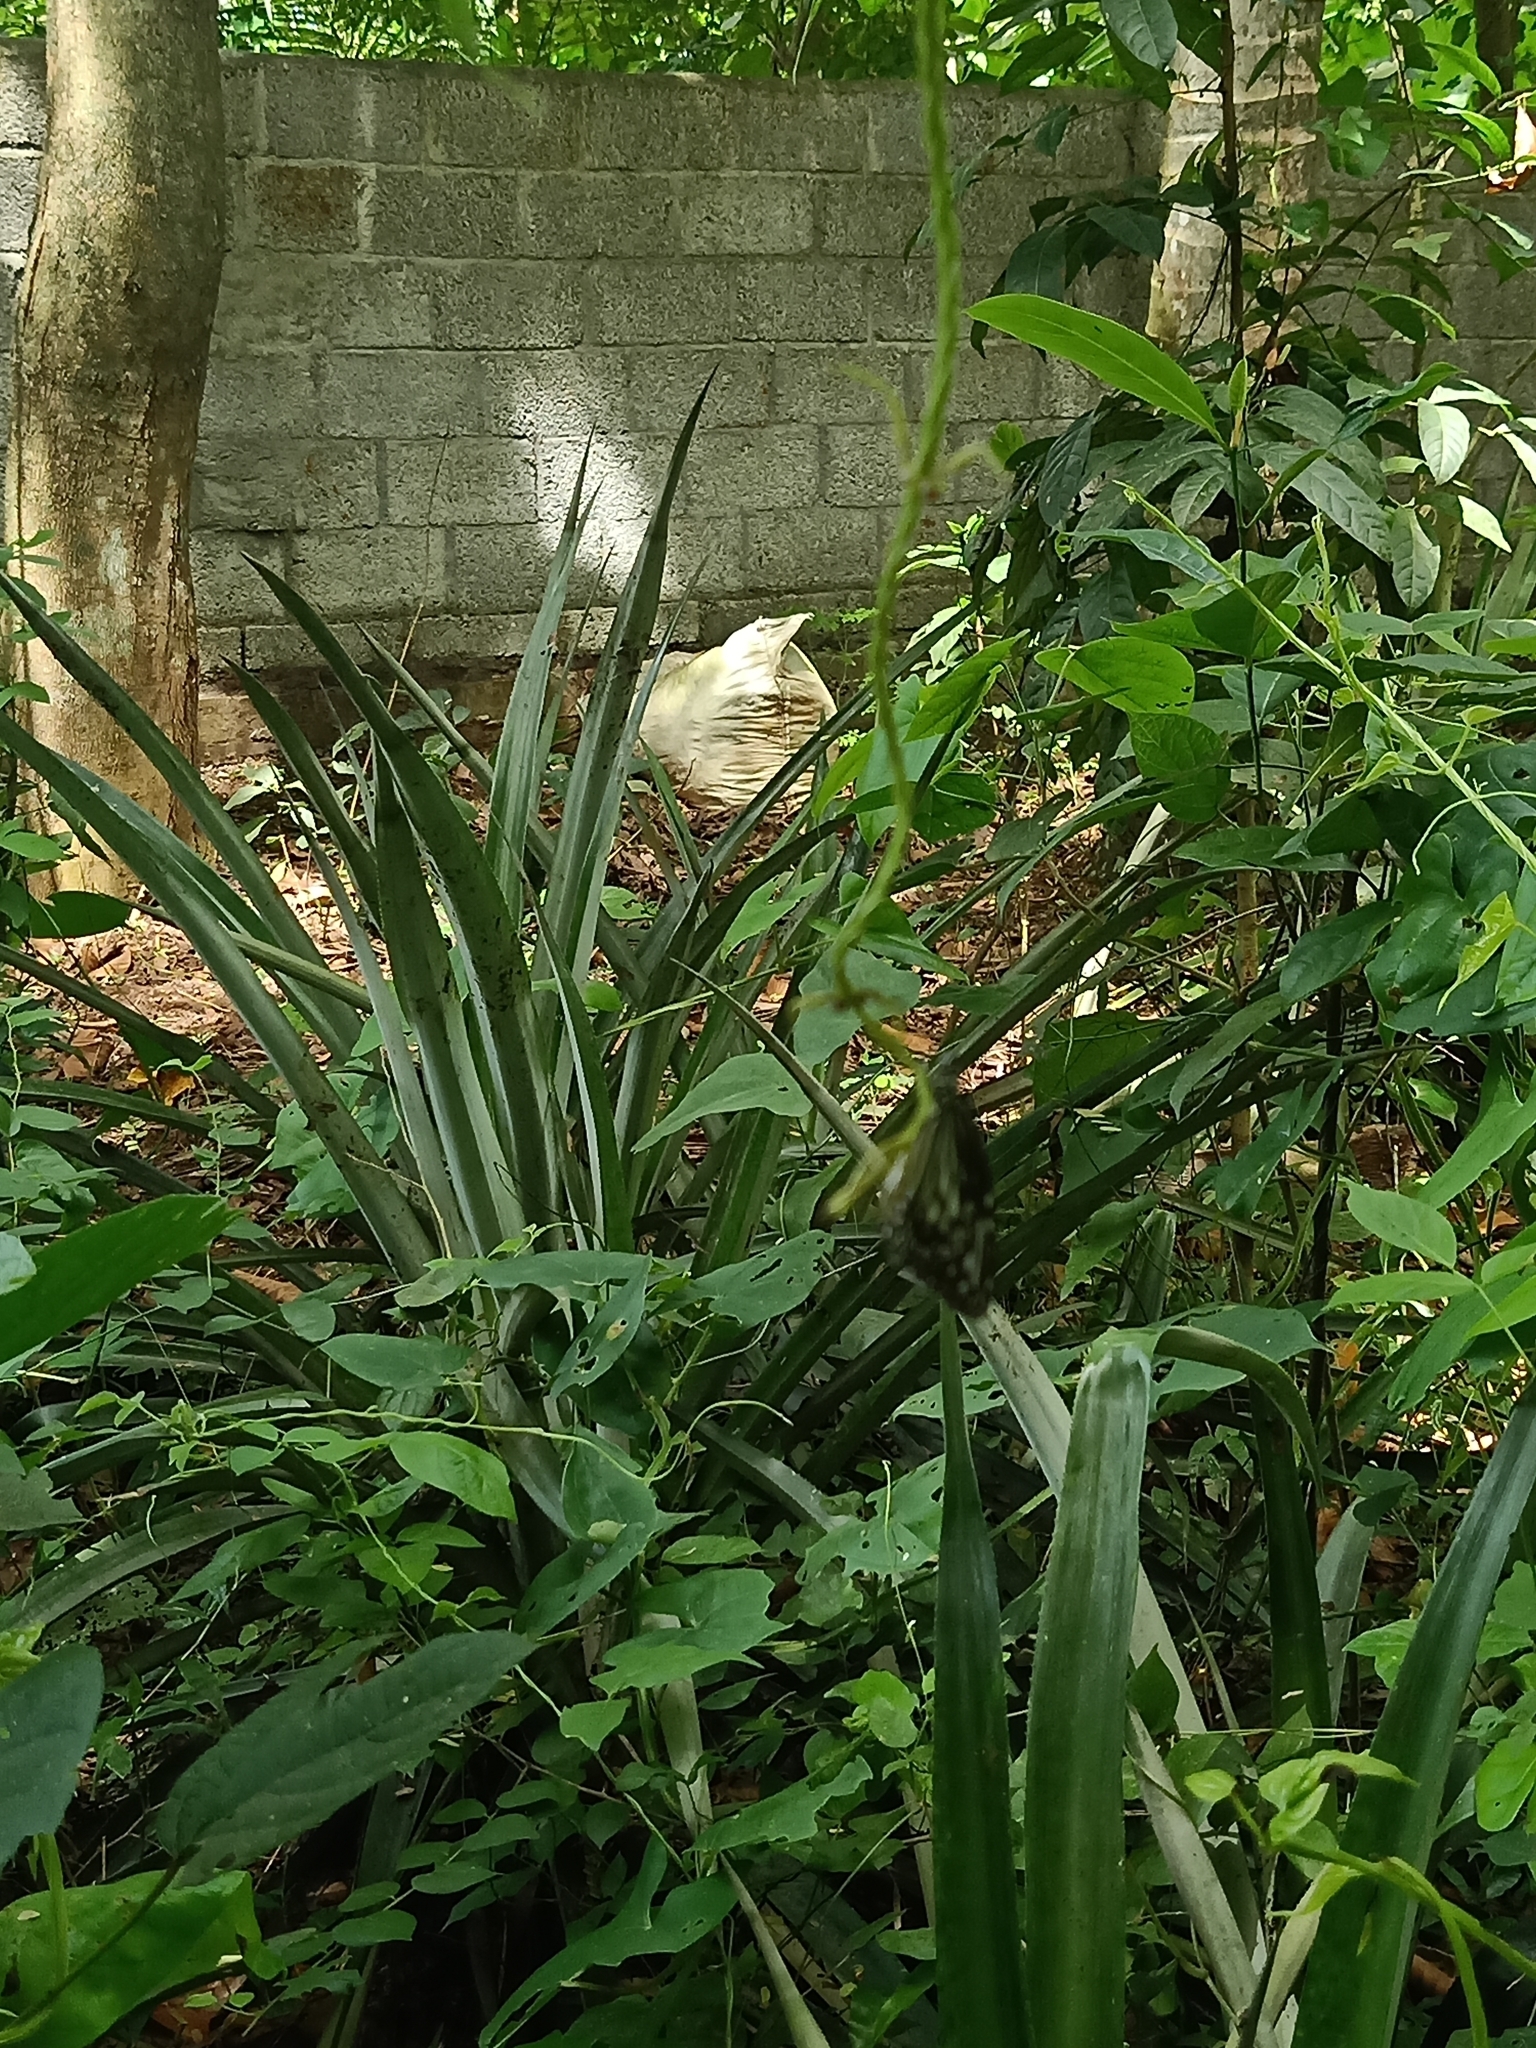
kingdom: Animalia
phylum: Arthropoda
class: Insecta
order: Lepidoptera
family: Nymphalidae
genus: Parantica
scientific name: Parantica aglea
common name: Glassy tiger
